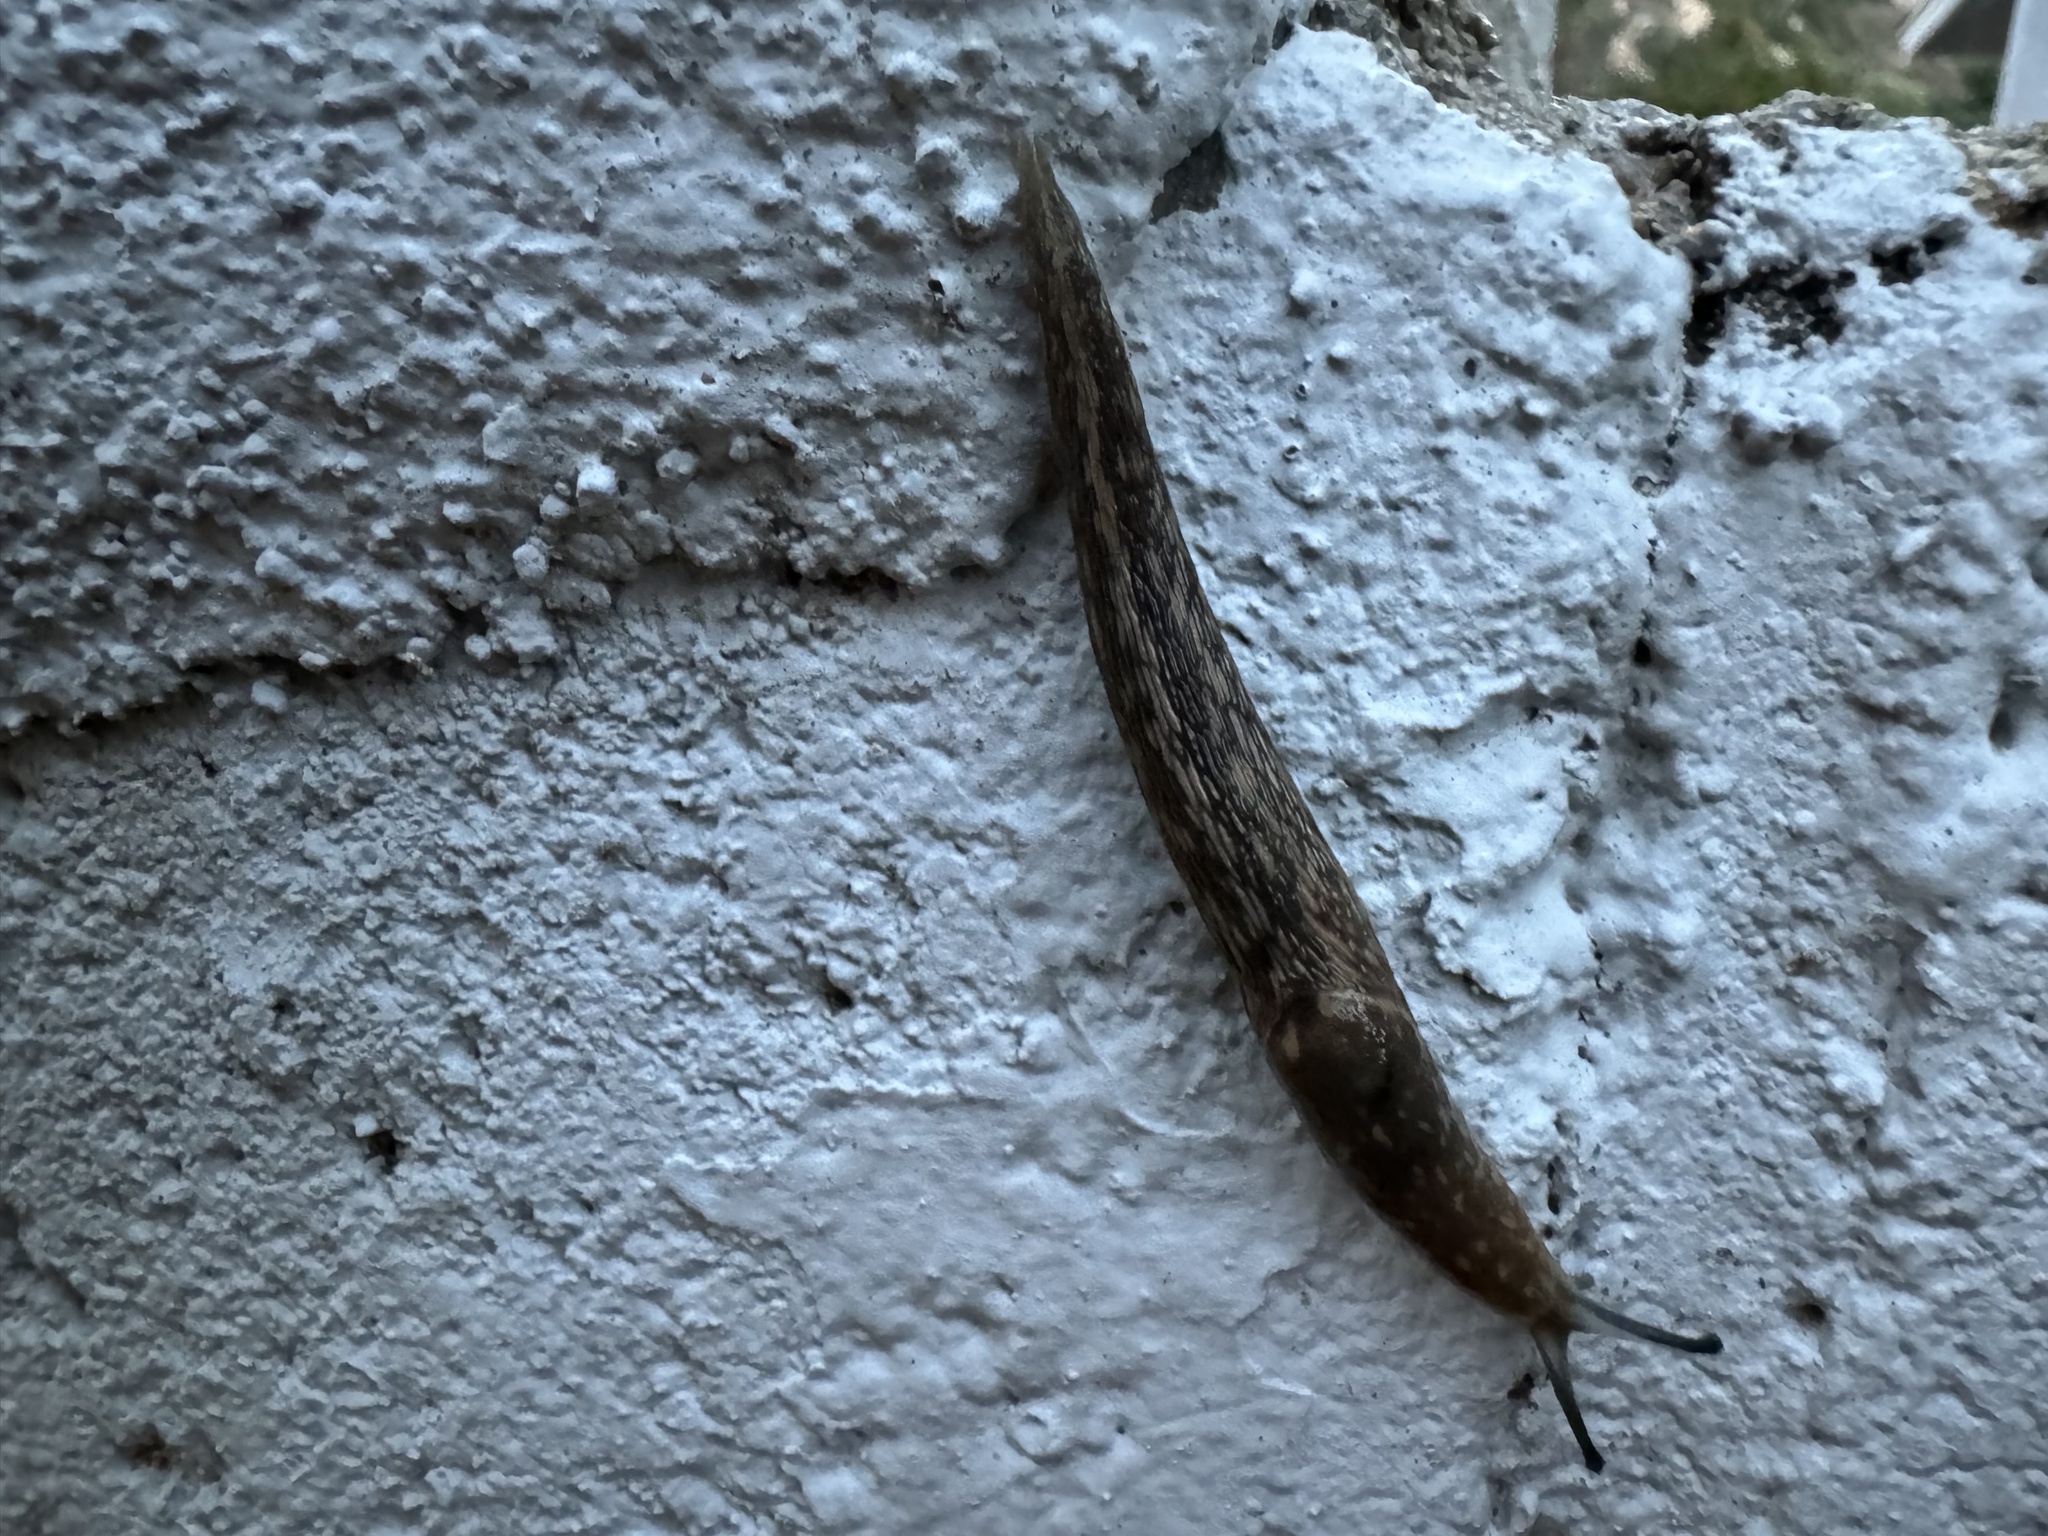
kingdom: Animalia
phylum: Mollusca
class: Gastropoda
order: Stylommatophora
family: Limacidae
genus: Limacus
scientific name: Limacus flavus
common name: Yellow gardenslug
